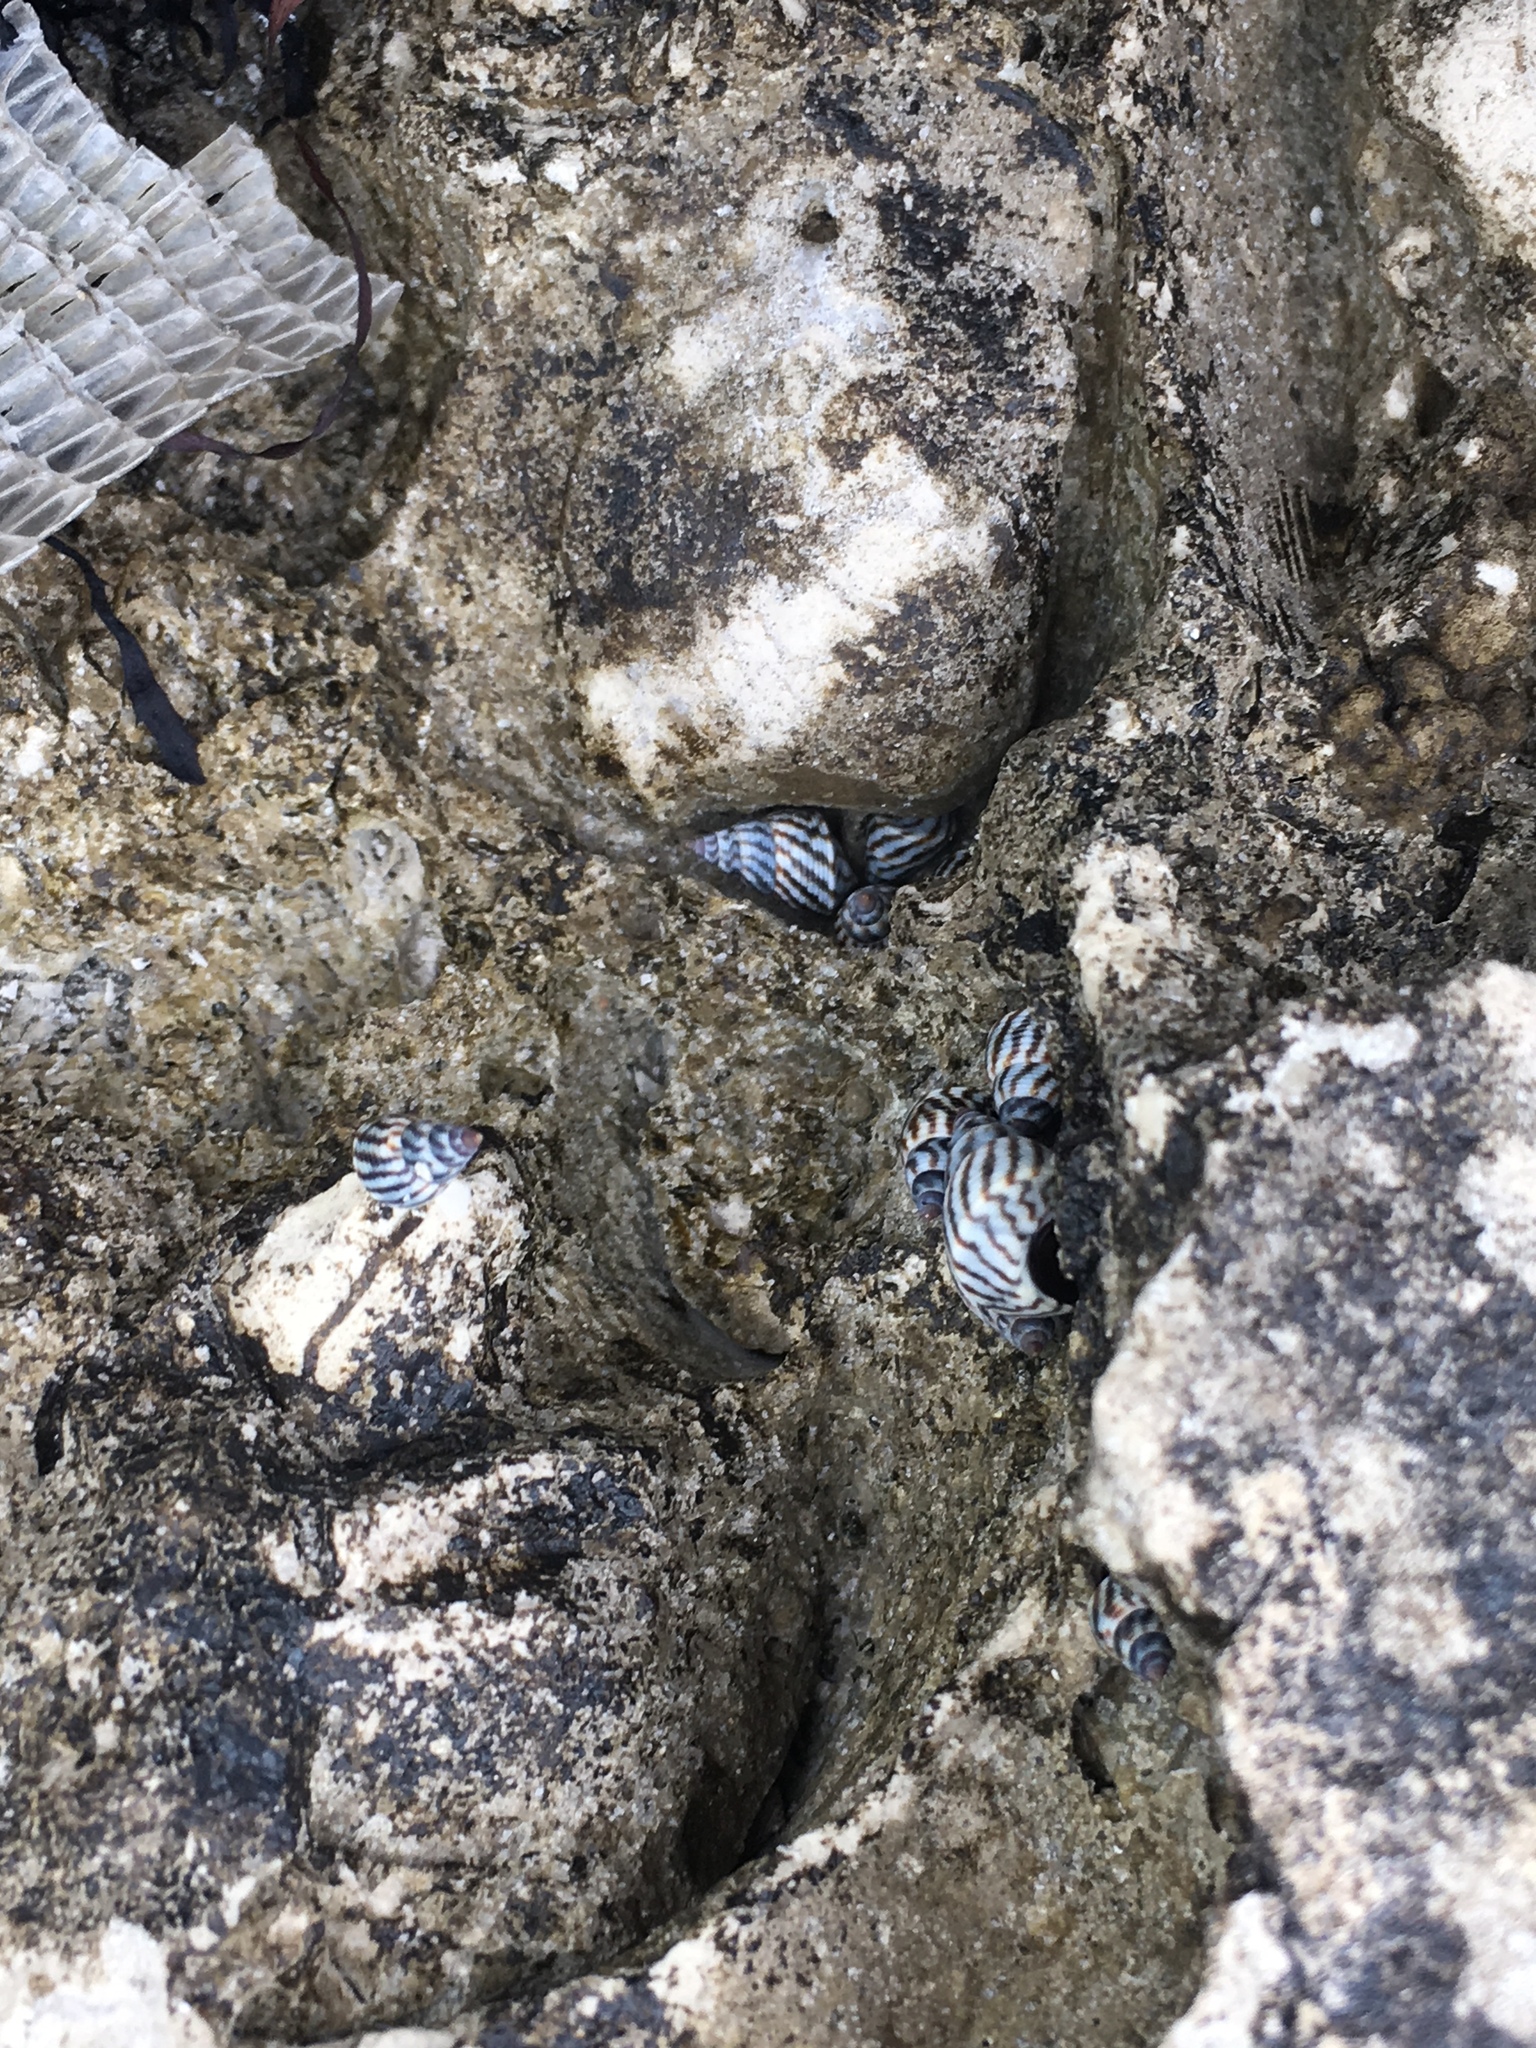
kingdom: Animalia
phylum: Mollusca
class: Gastropoda
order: Littorinimorpha
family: Littorinidae
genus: Echinolittorina
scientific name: Echinolittorina angustior
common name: Slender periwinkle
